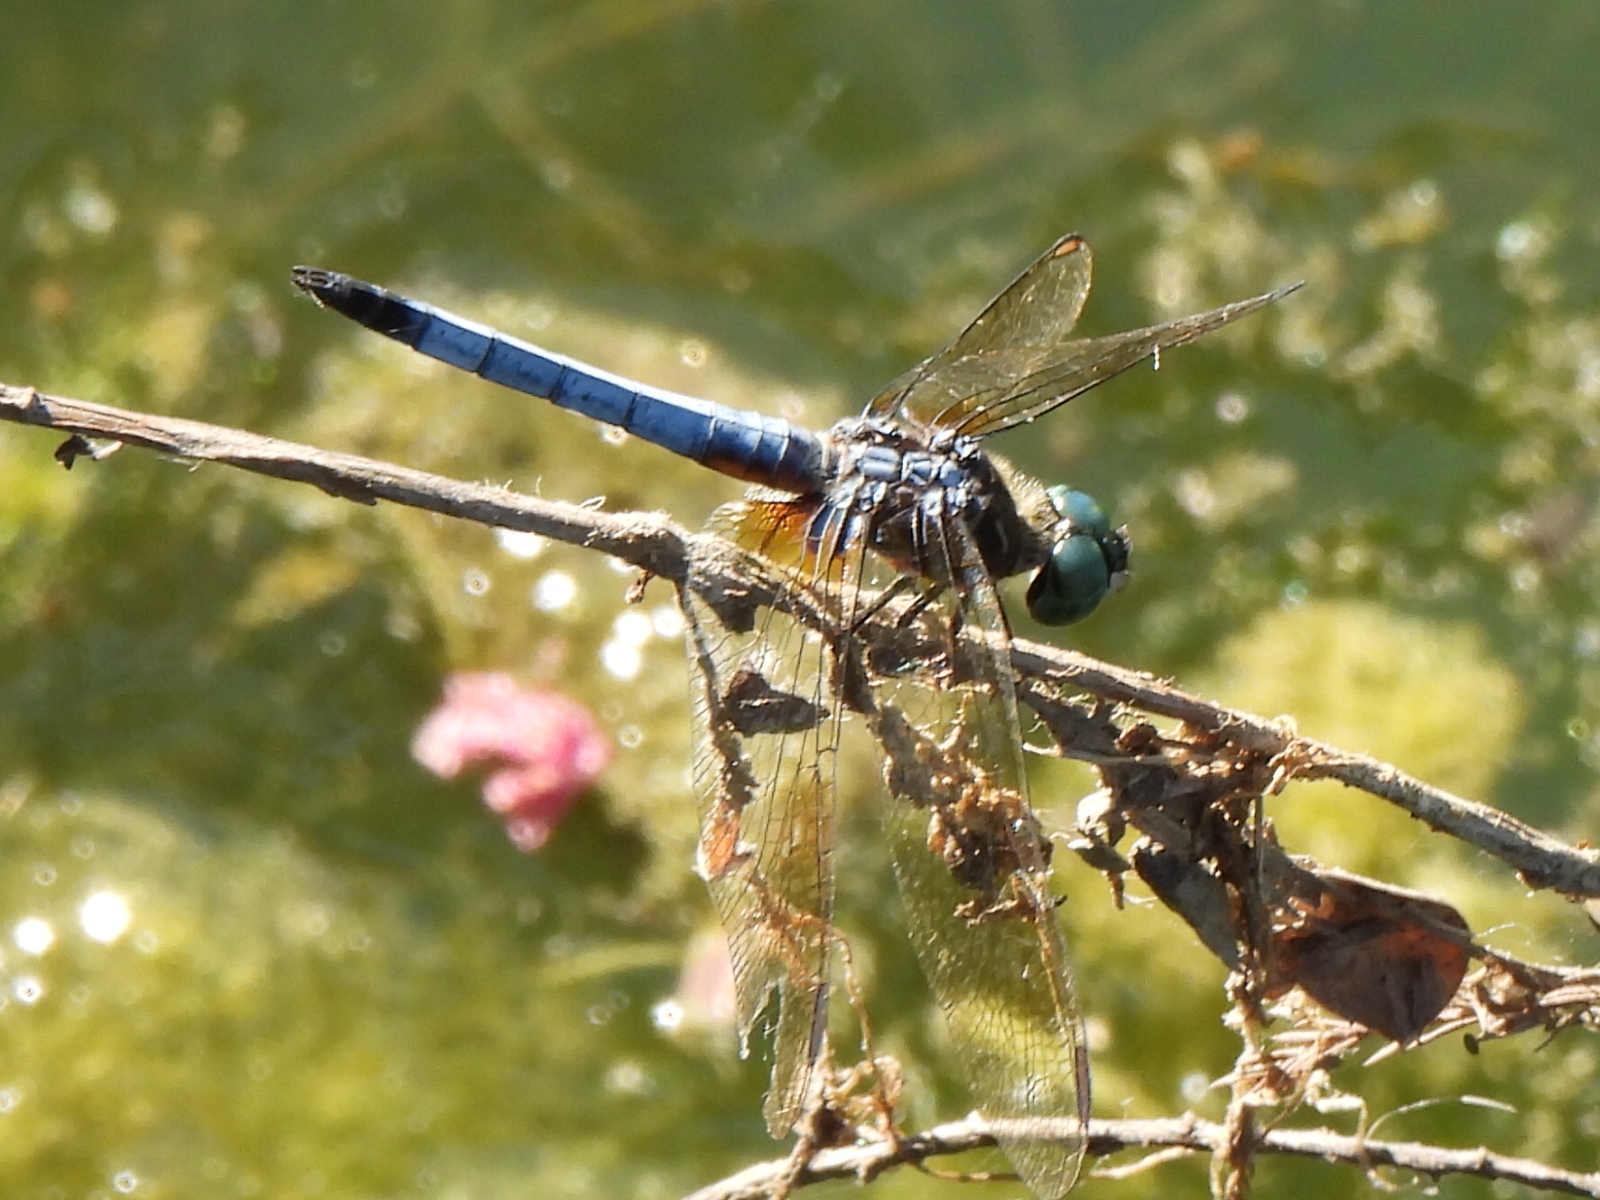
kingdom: Animalia
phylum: Arthropoda
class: Insecta
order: Odonata
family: Libellulidae
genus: Pachydiplax
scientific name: Pachydiplax longipennis
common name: Blue dasher
